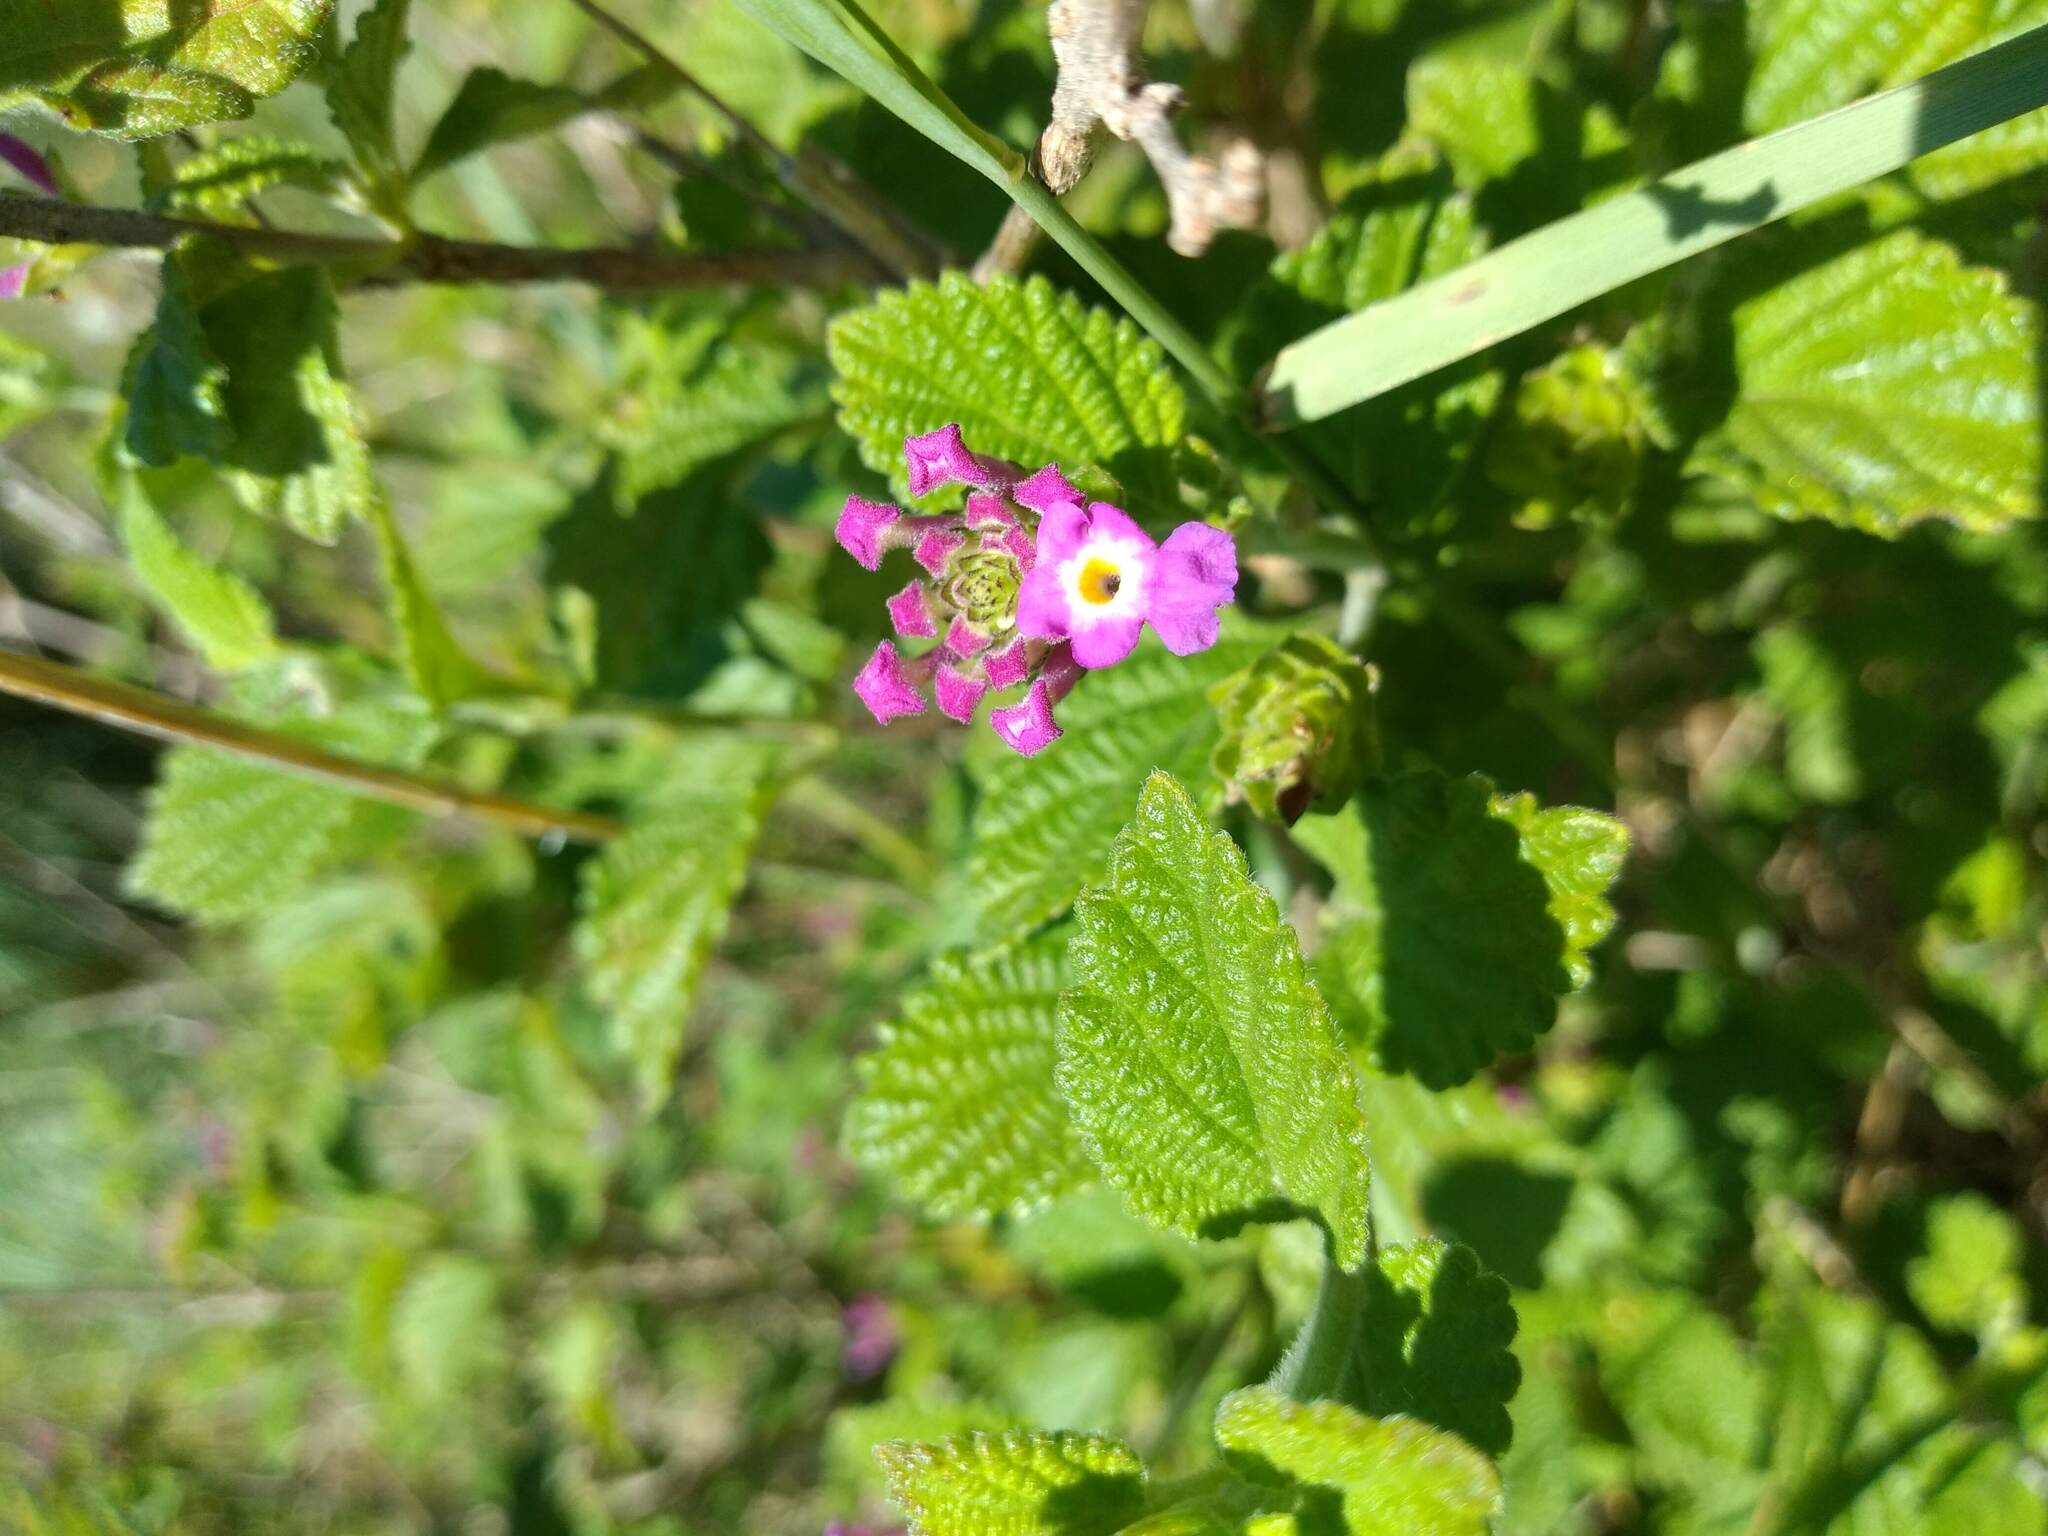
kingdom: Plantae
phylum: Tracheophyta
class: Magnoliopsida
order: Lamiales
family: Verbenaceae
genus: Lantana
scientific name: Lantana megapotamica
